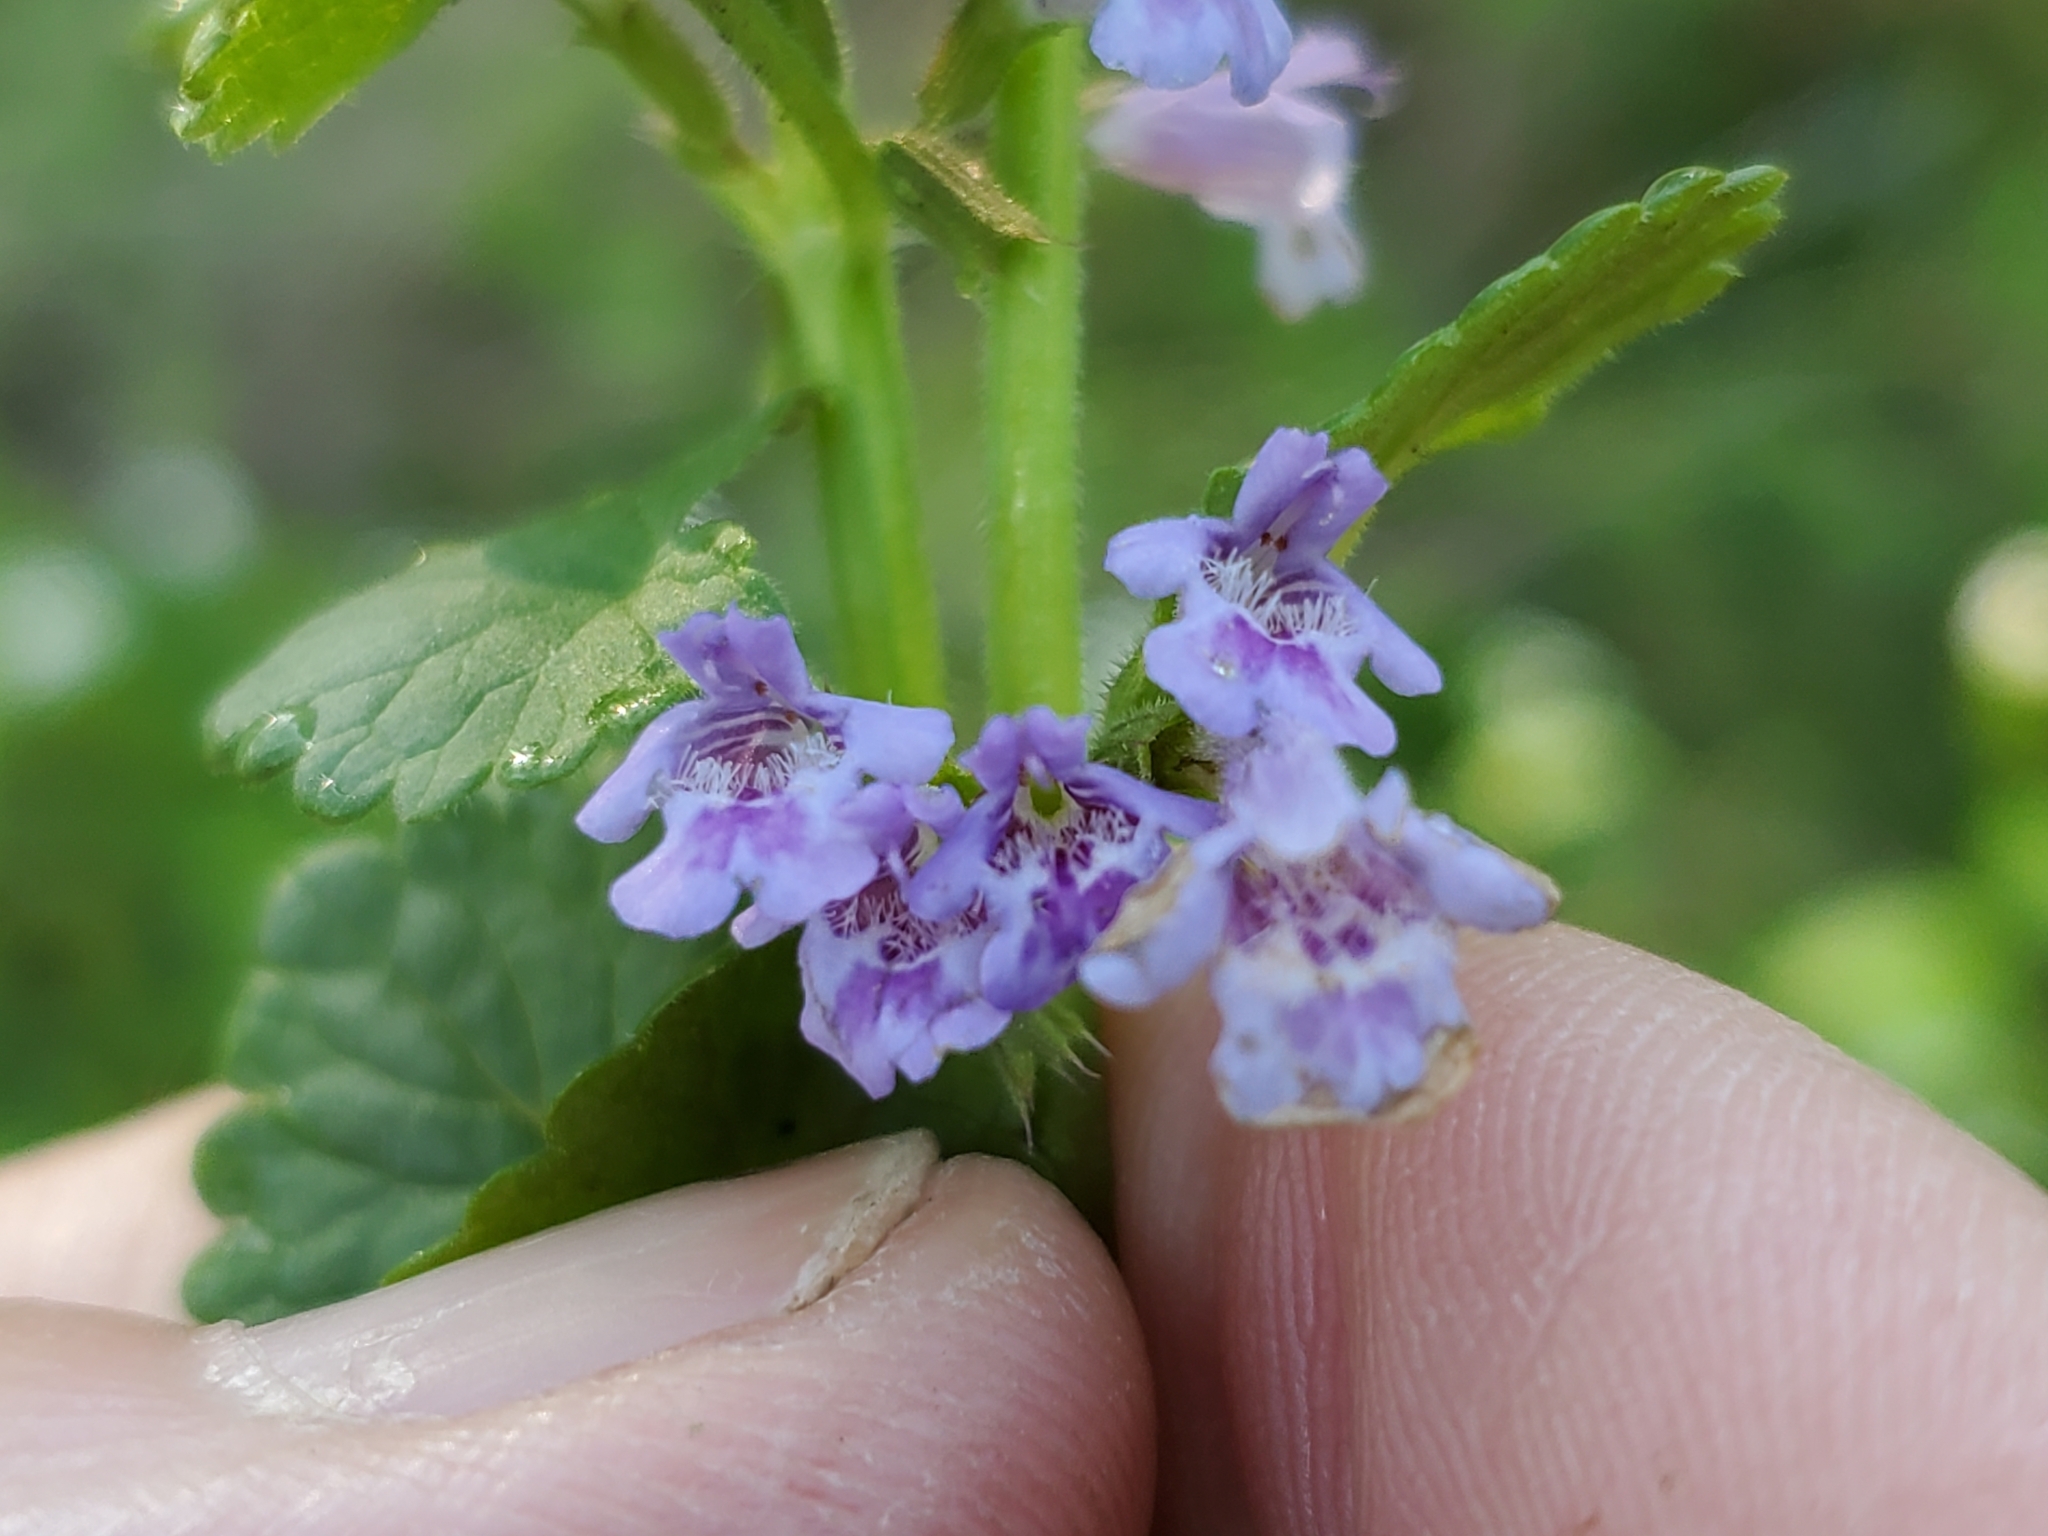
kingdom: Plantae
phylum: Tracheophyta
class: Magnoliopsida
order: Lamiales
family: Lamiaceae
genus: Glechoma
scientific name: Glechoma hederacea
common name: Ground ivy
